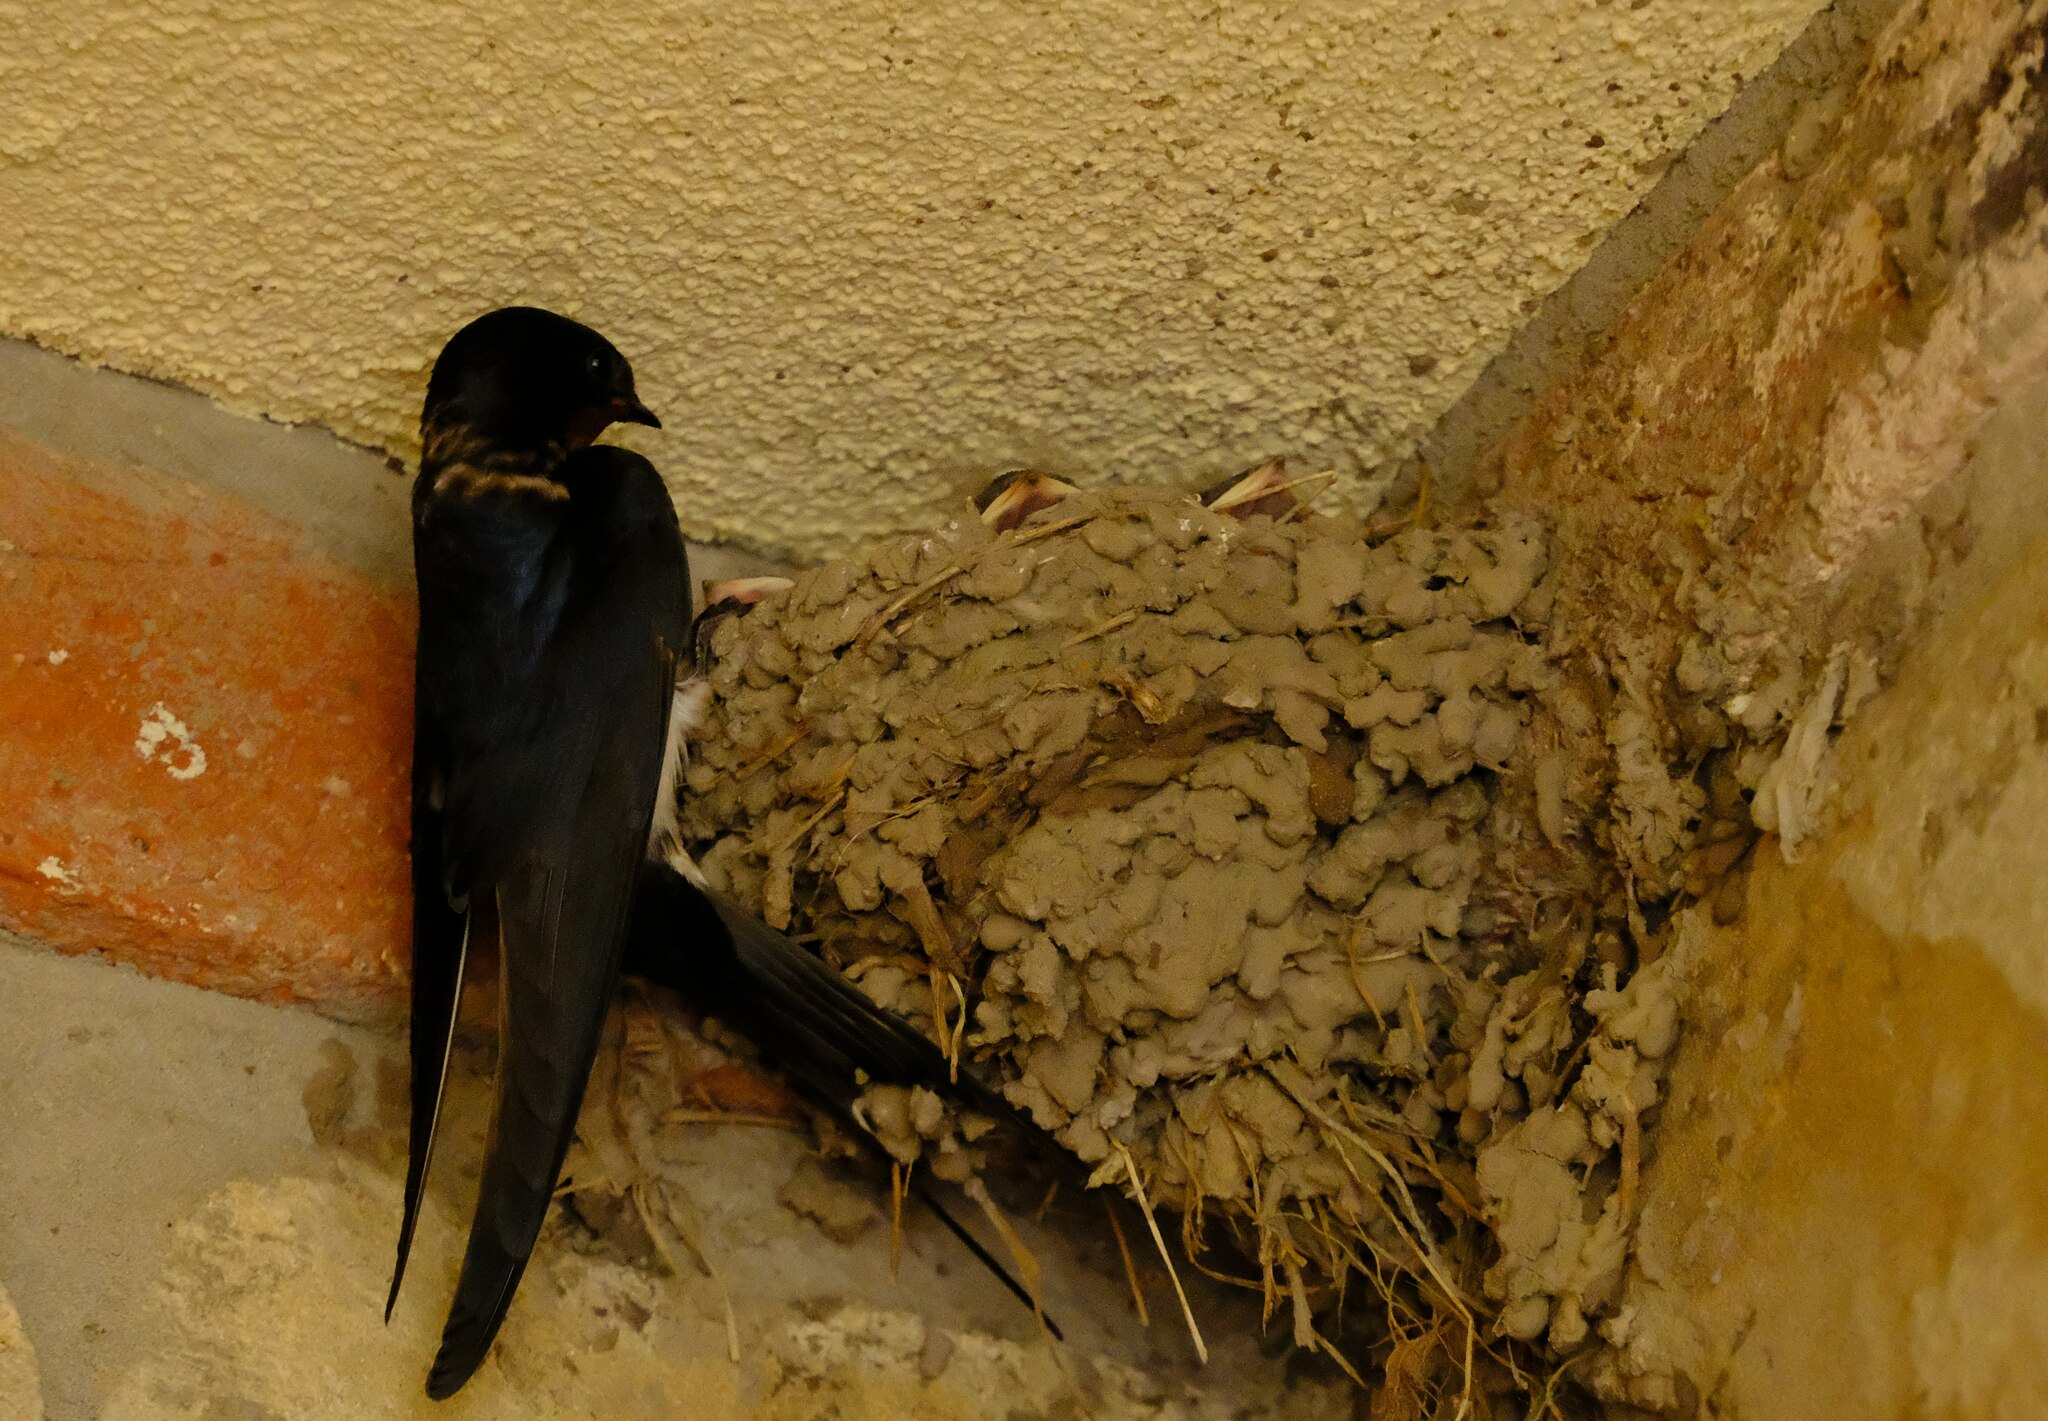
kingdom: Animalia
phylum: Chordata
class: Aves
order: Passeriformes
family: Hirundinidae
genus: Hirundo
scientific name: Hirundo rustica
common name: Barn swallow
